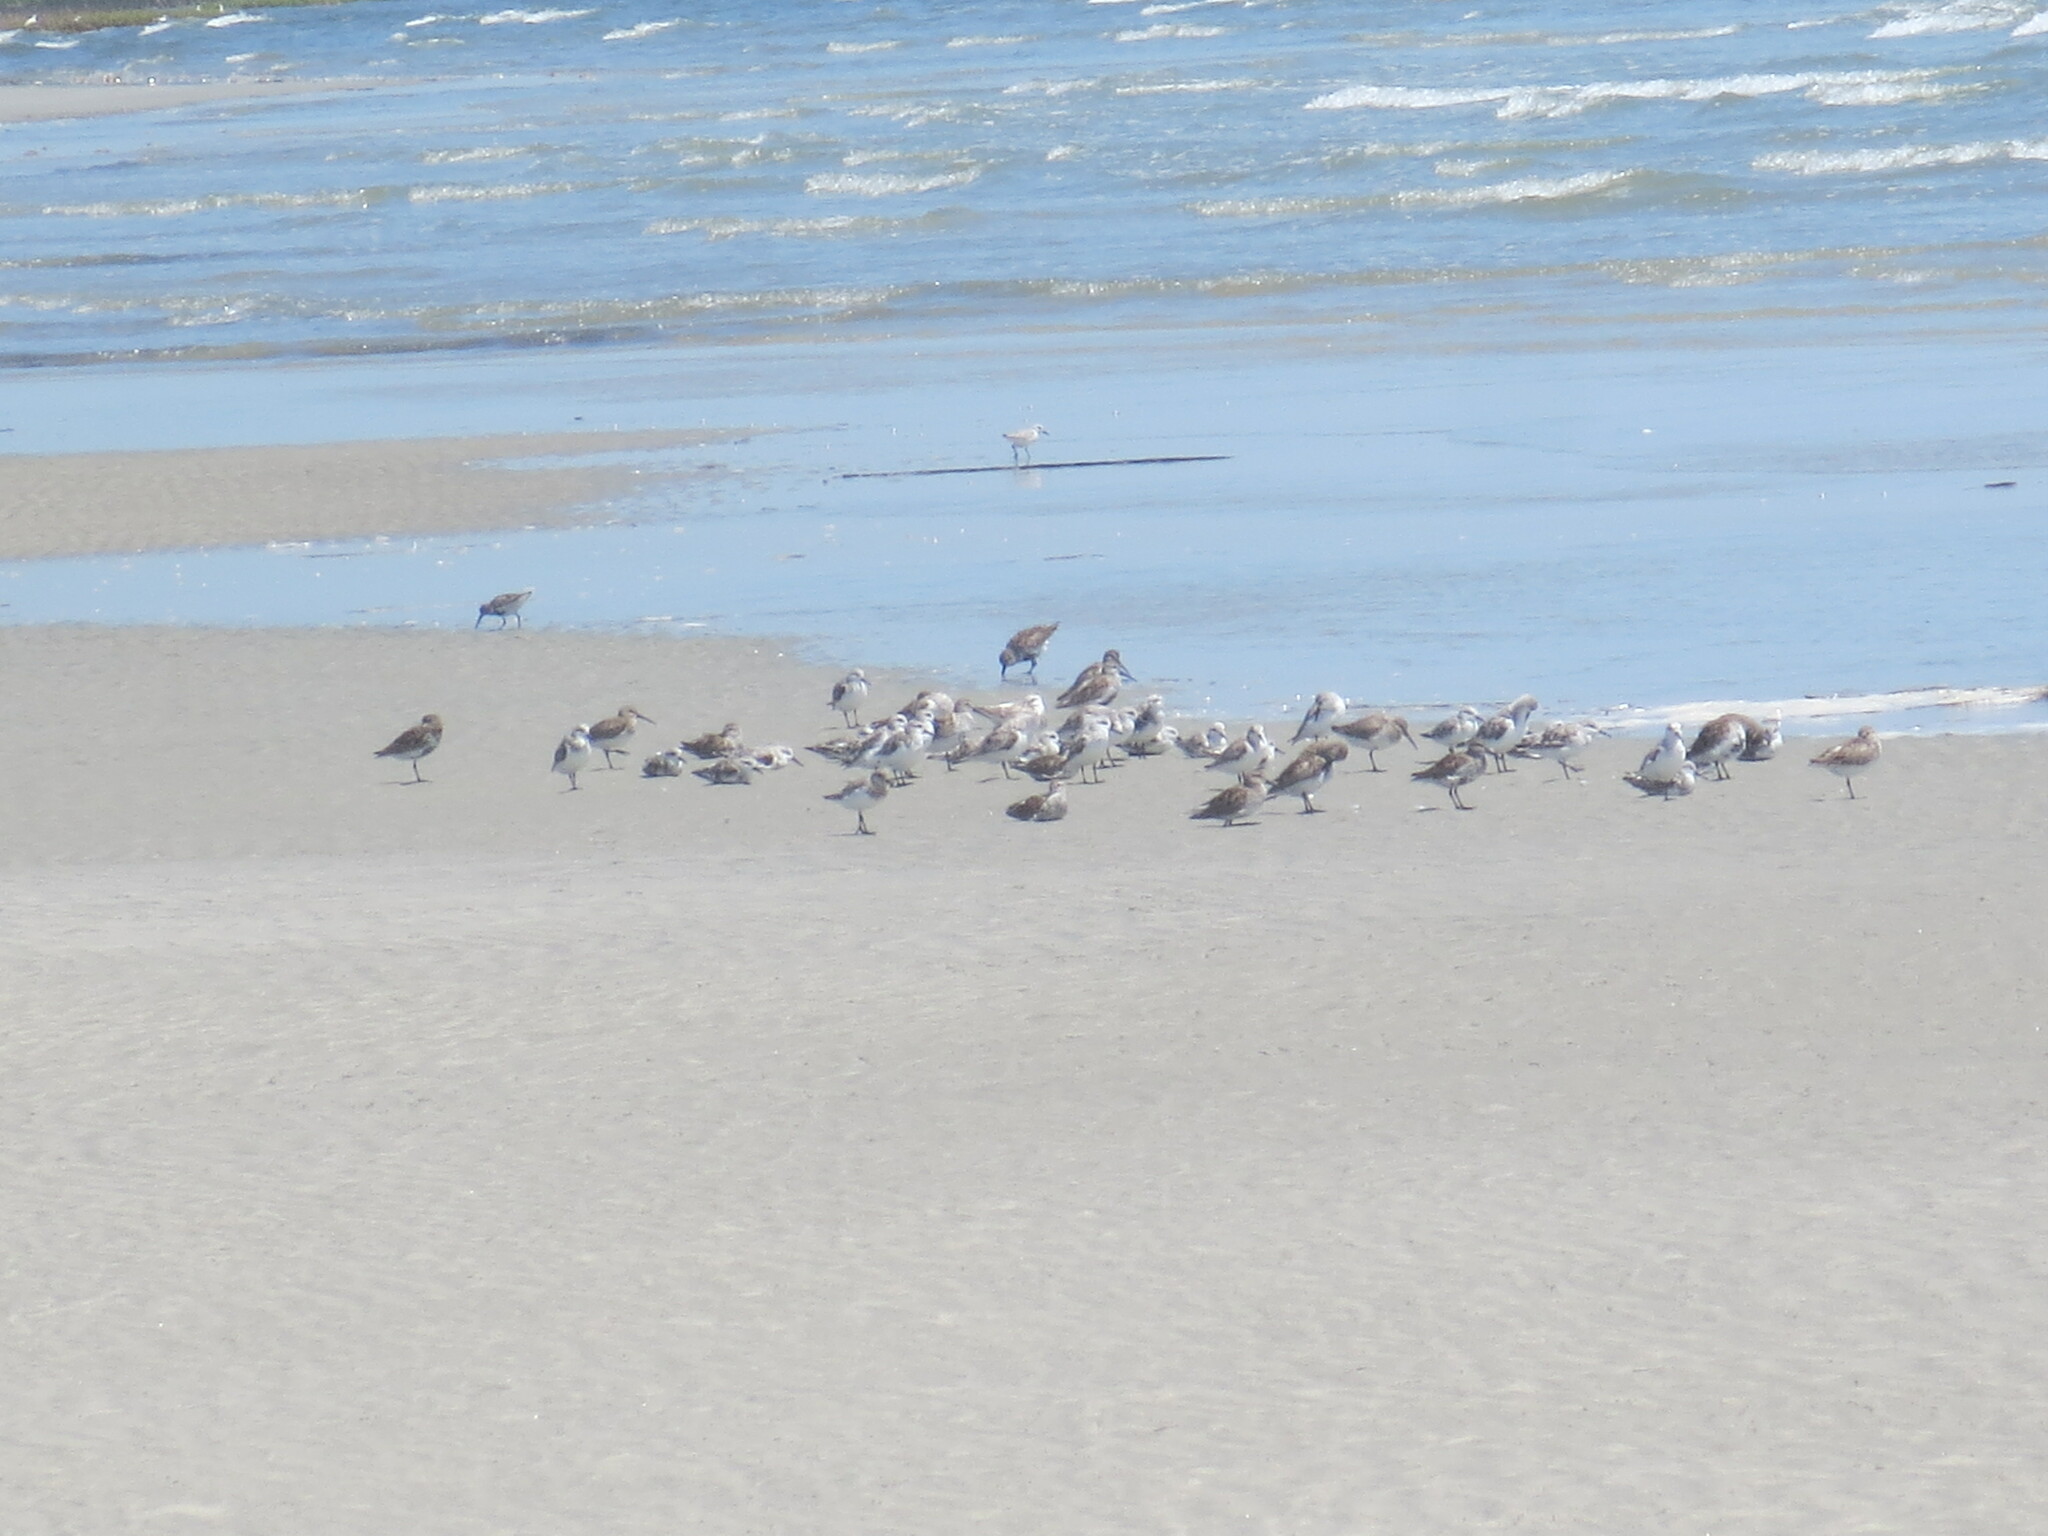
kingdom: Animalia
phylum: Chordata
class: Aves
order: Charadriiformes
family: Scolopacidae
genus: Calidris
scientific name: Calidris alba
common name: Sanderling
